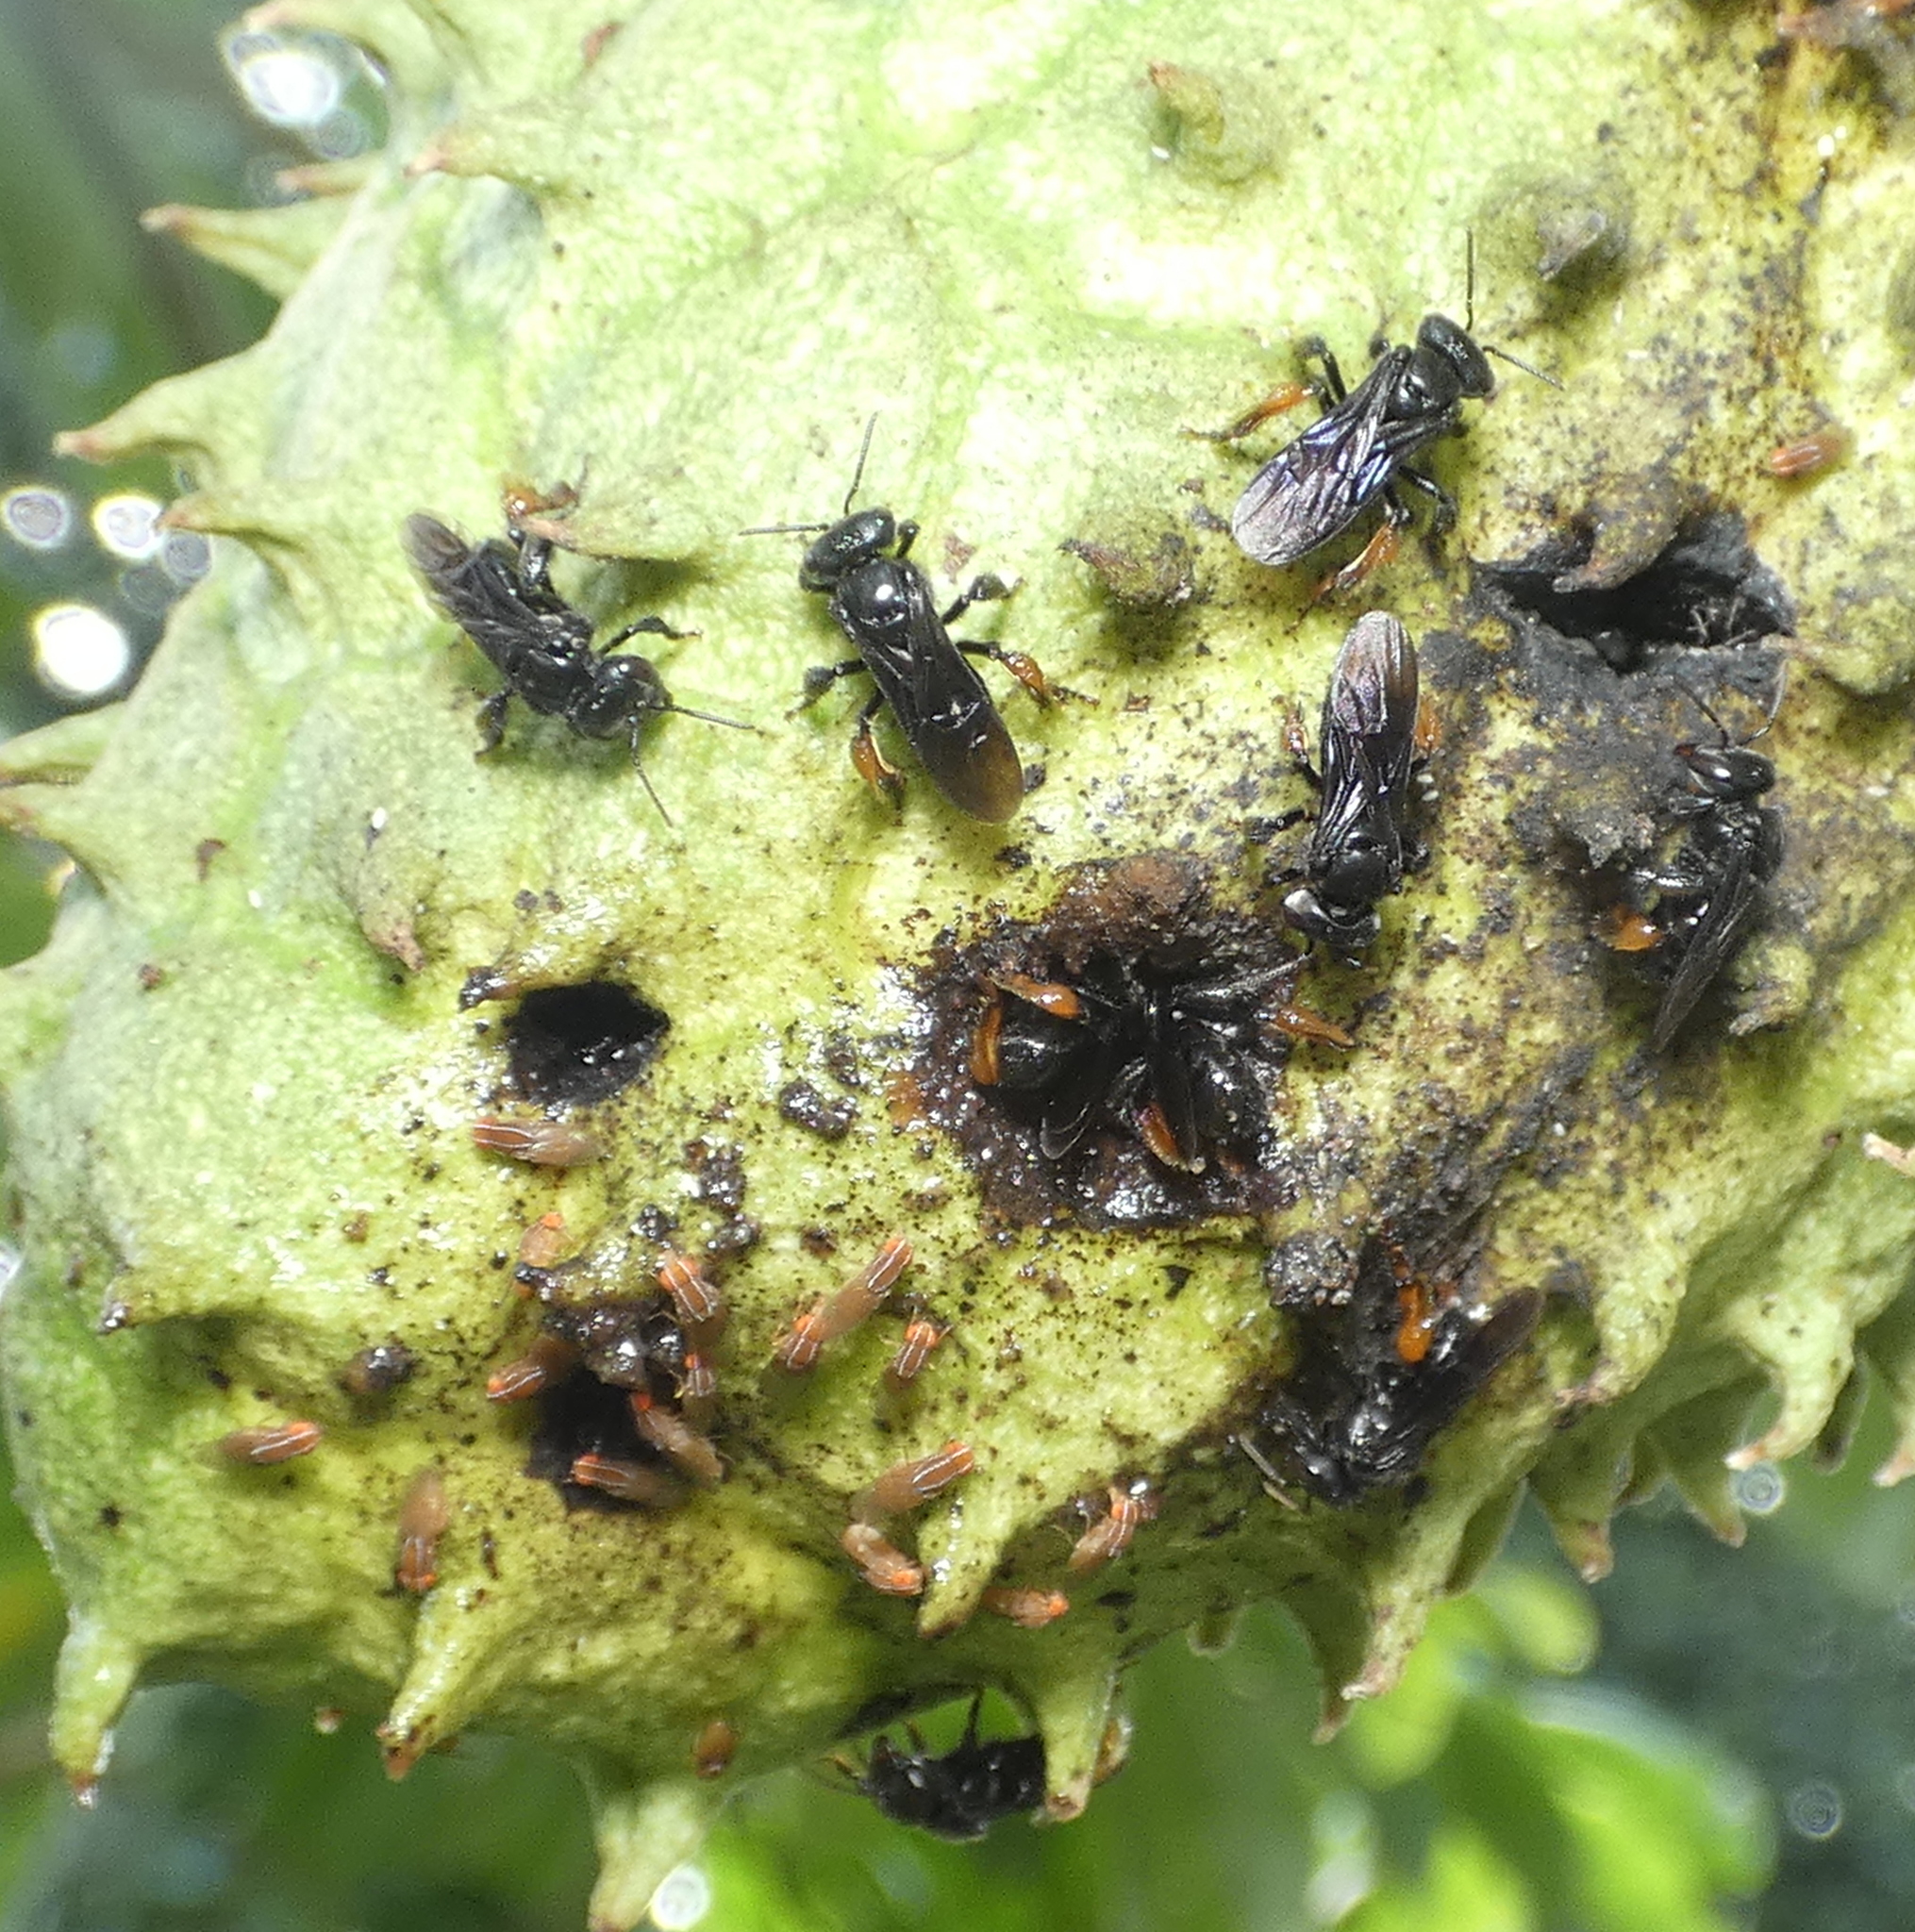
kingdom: Animalia
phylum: Arthropoda
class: Insecta
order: Hymenoptera
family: Apidae
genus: Trigona
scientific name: Trigona spinipes
